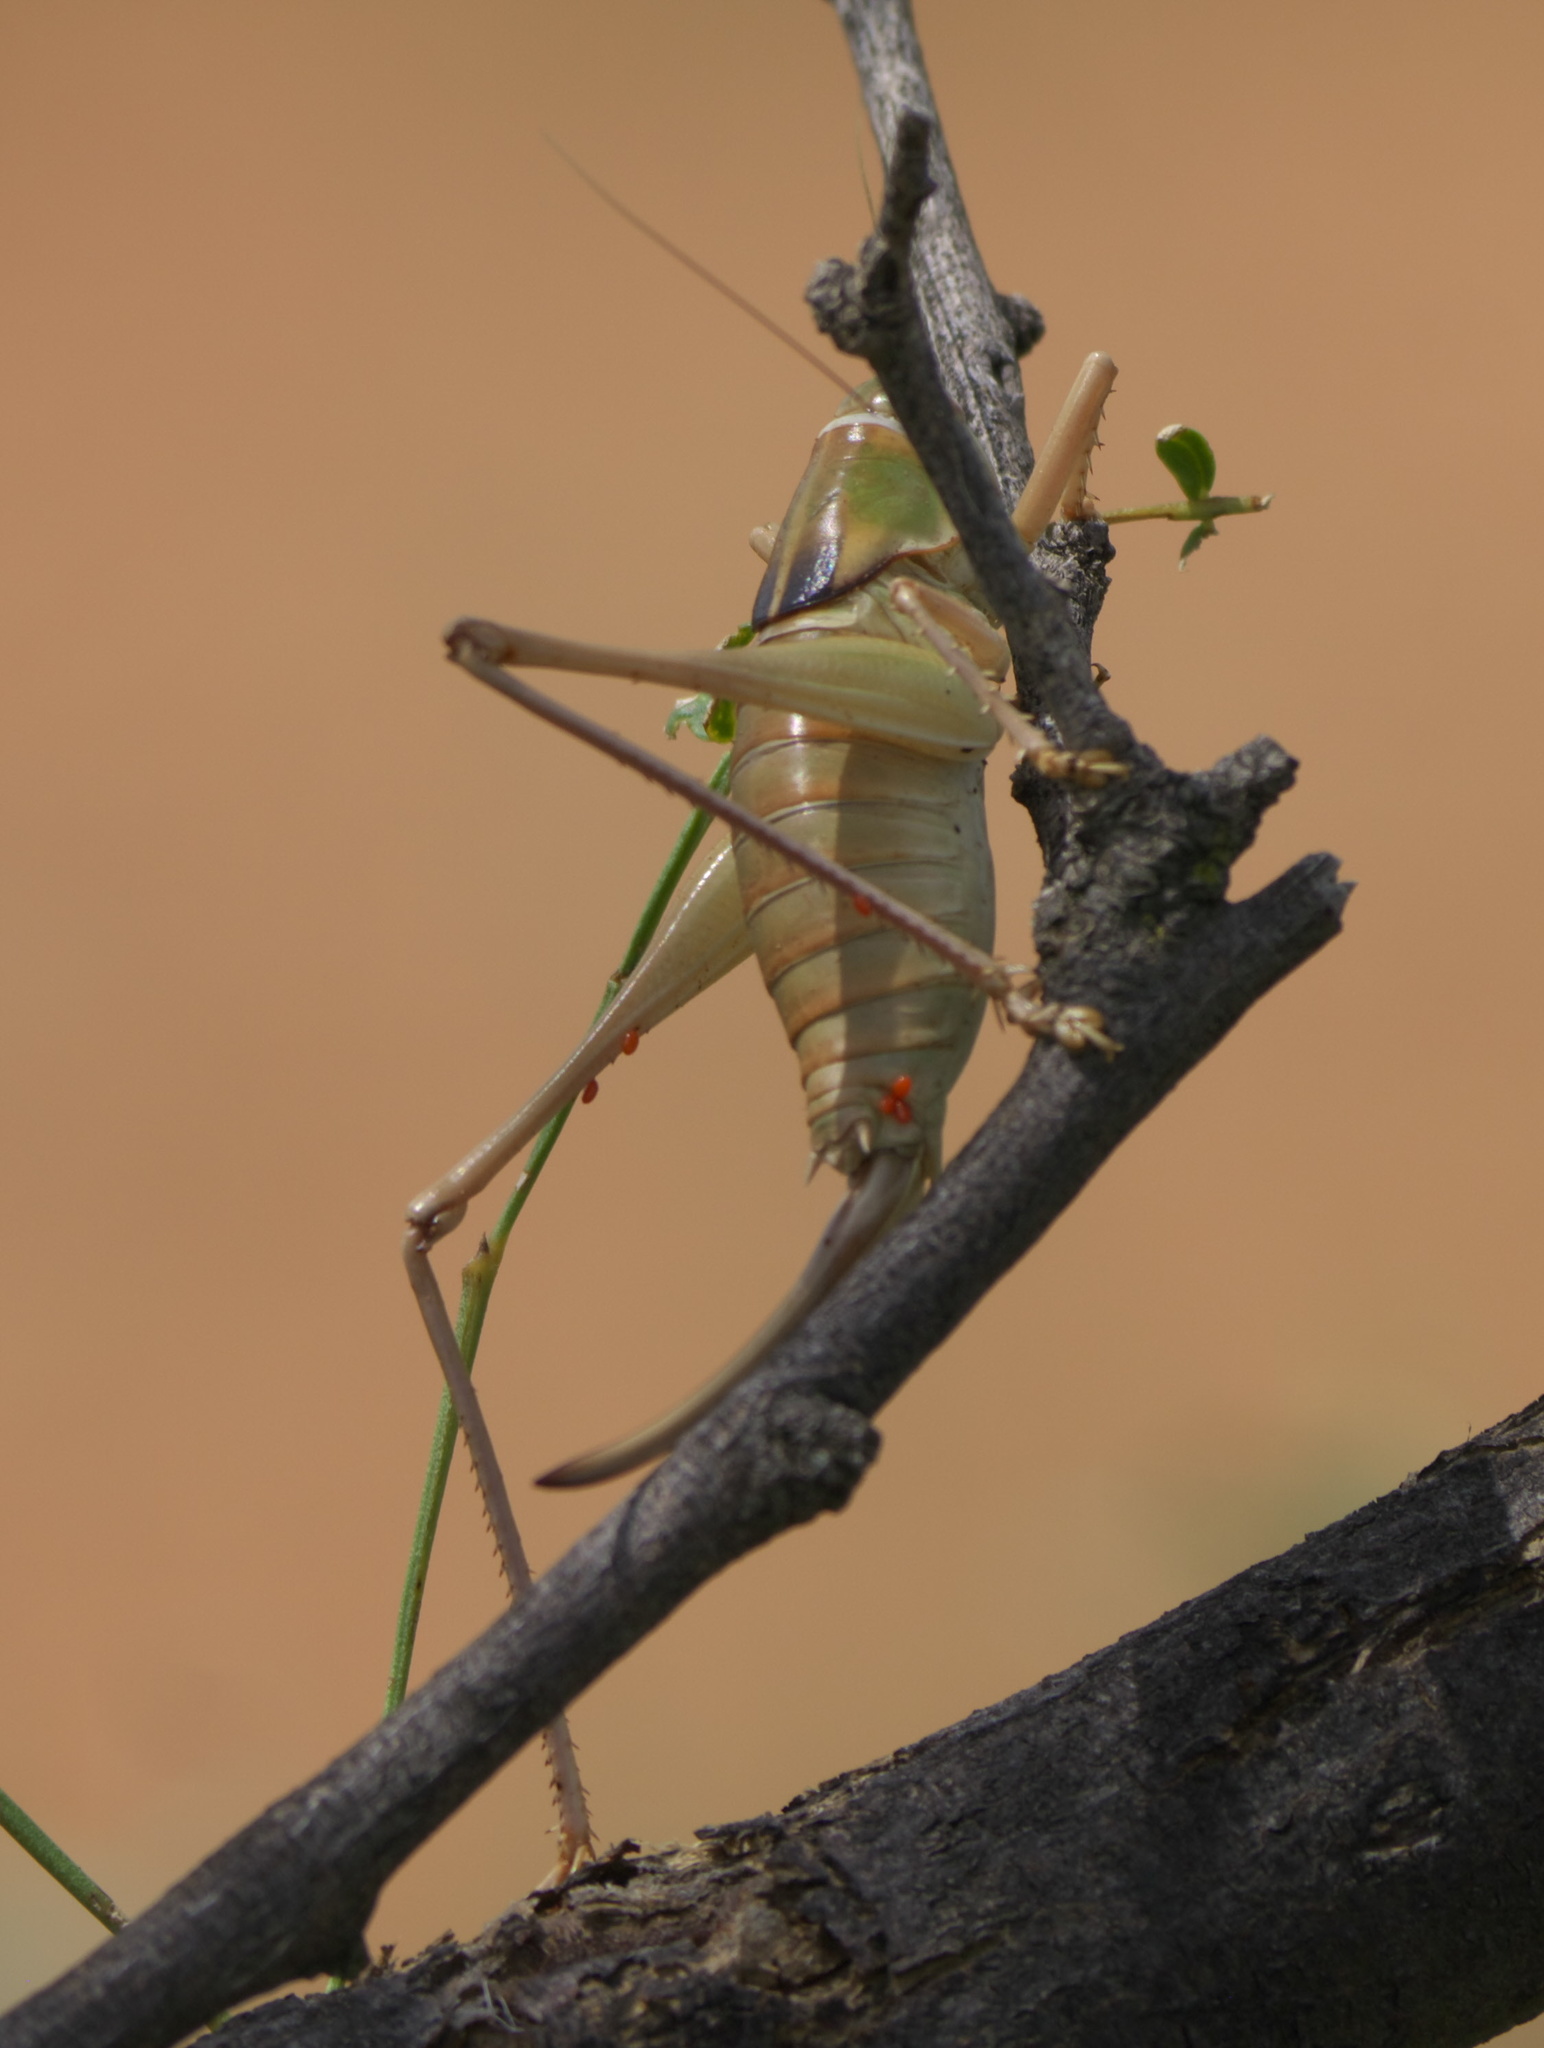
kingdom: Animalia
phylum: Arthropoda
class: Insecta
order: Orthoptera
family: Tettigoniidae
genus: Pediodectes
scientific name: Pediodectes haldemanii
